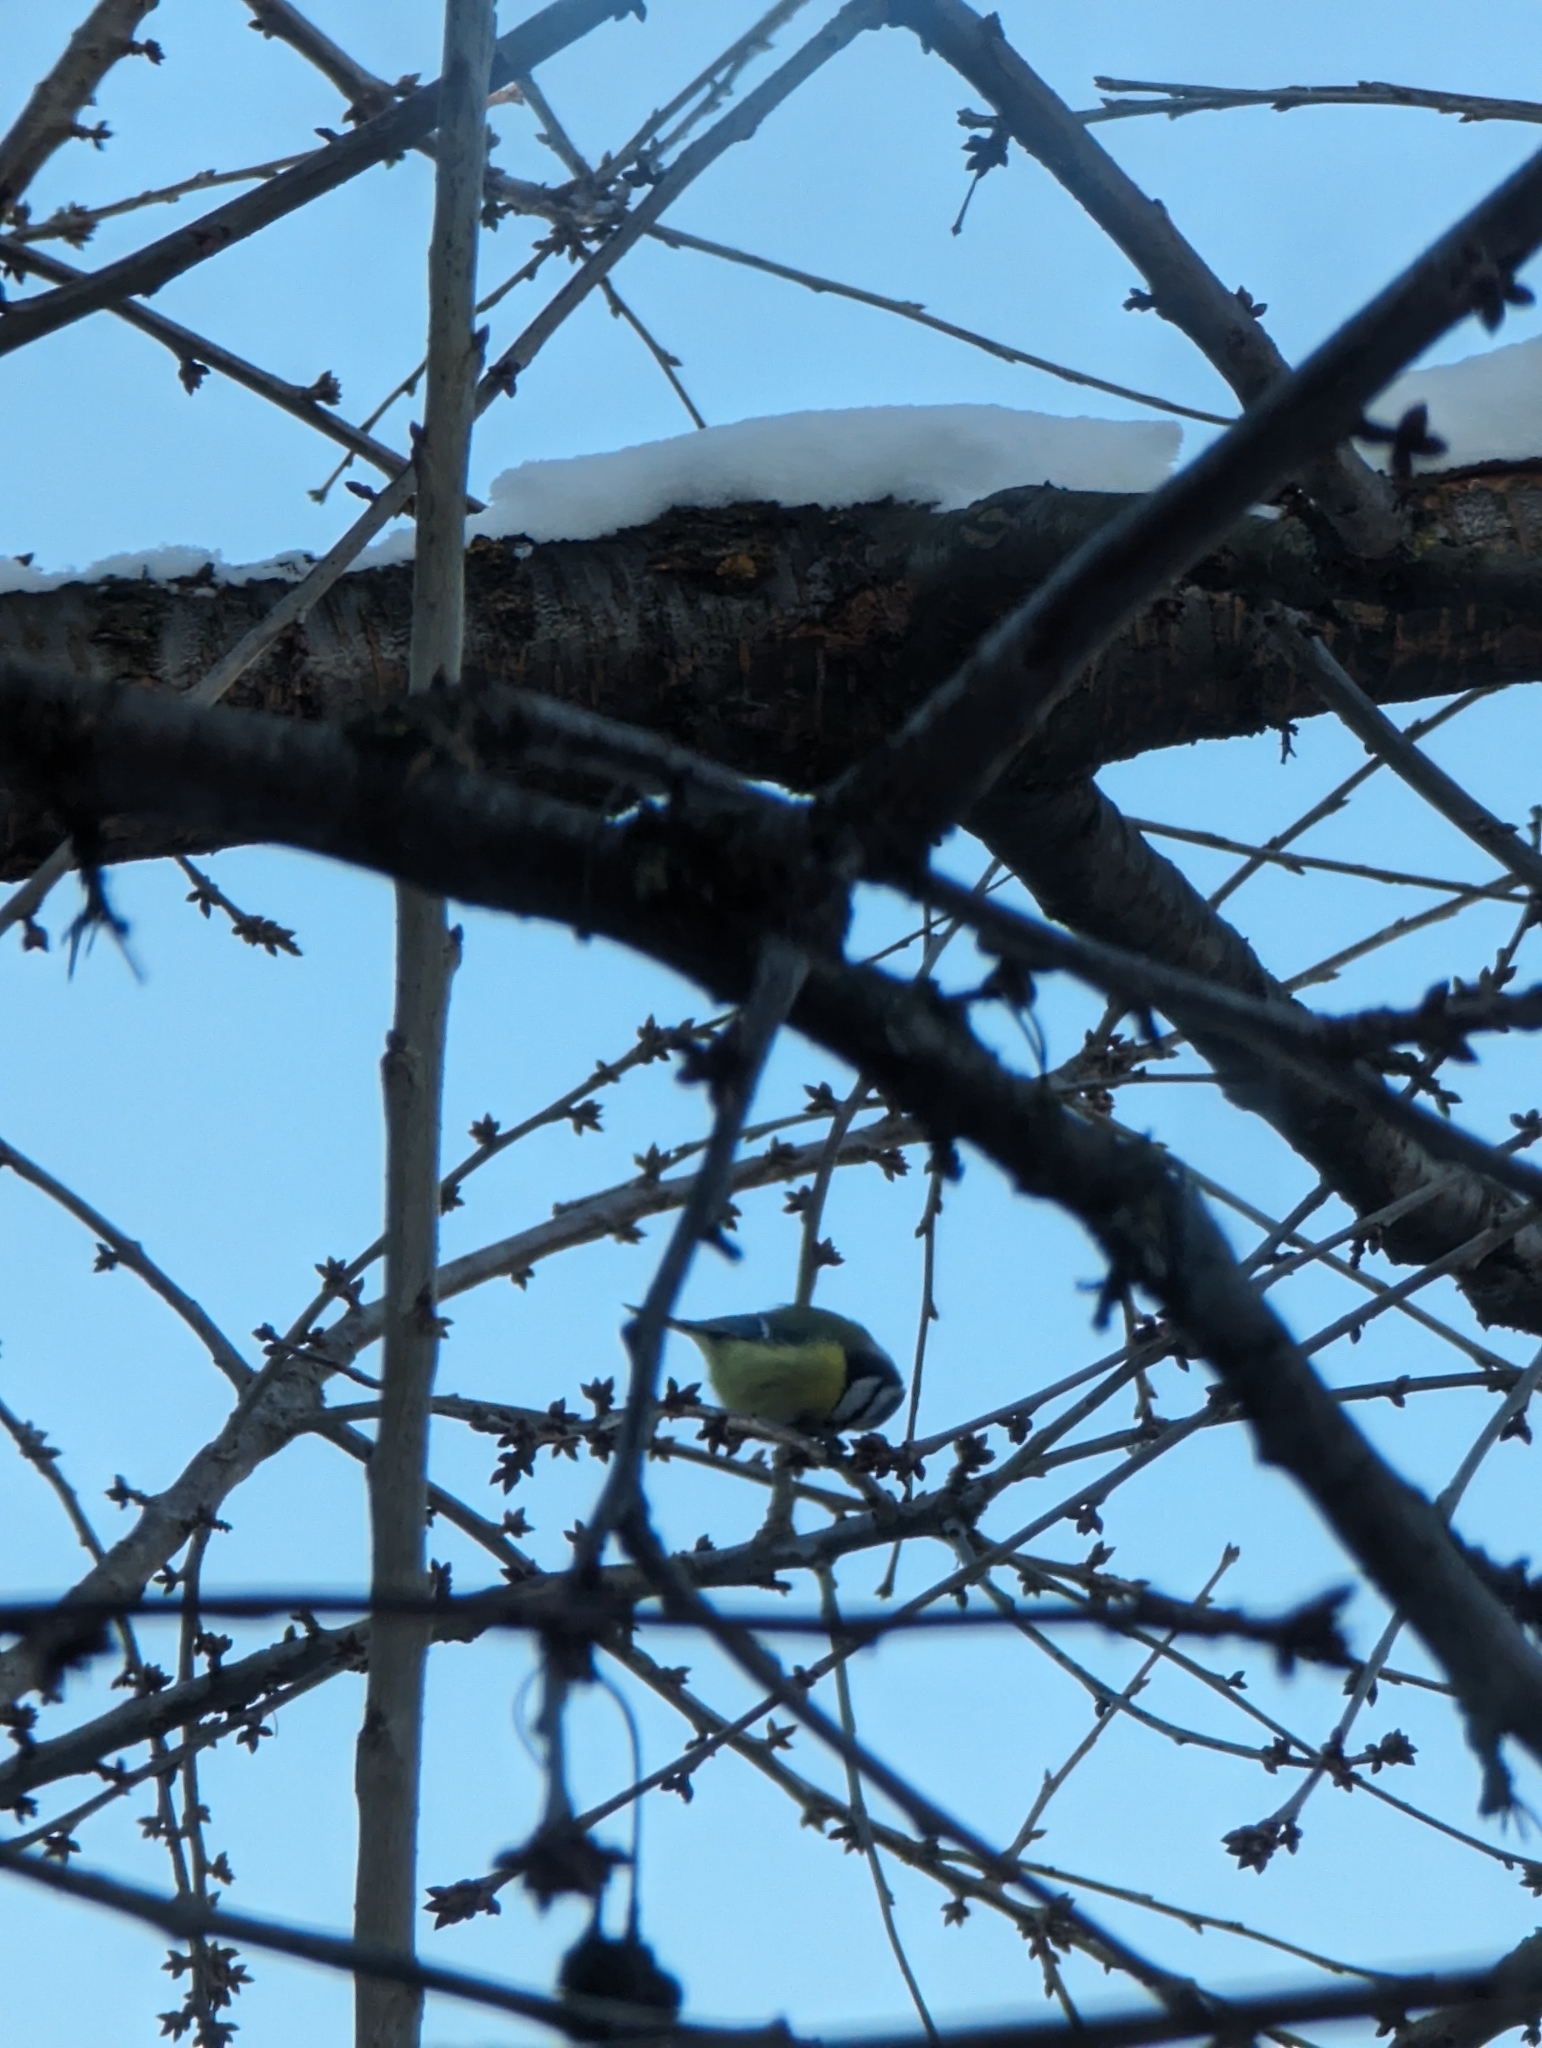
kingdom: Animalia
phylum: Chordata
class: Aves
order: Passeriformes
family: Paridae
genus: Cyanistes
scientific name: Cyanistes caeruleus
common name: Eurasian blue tit
